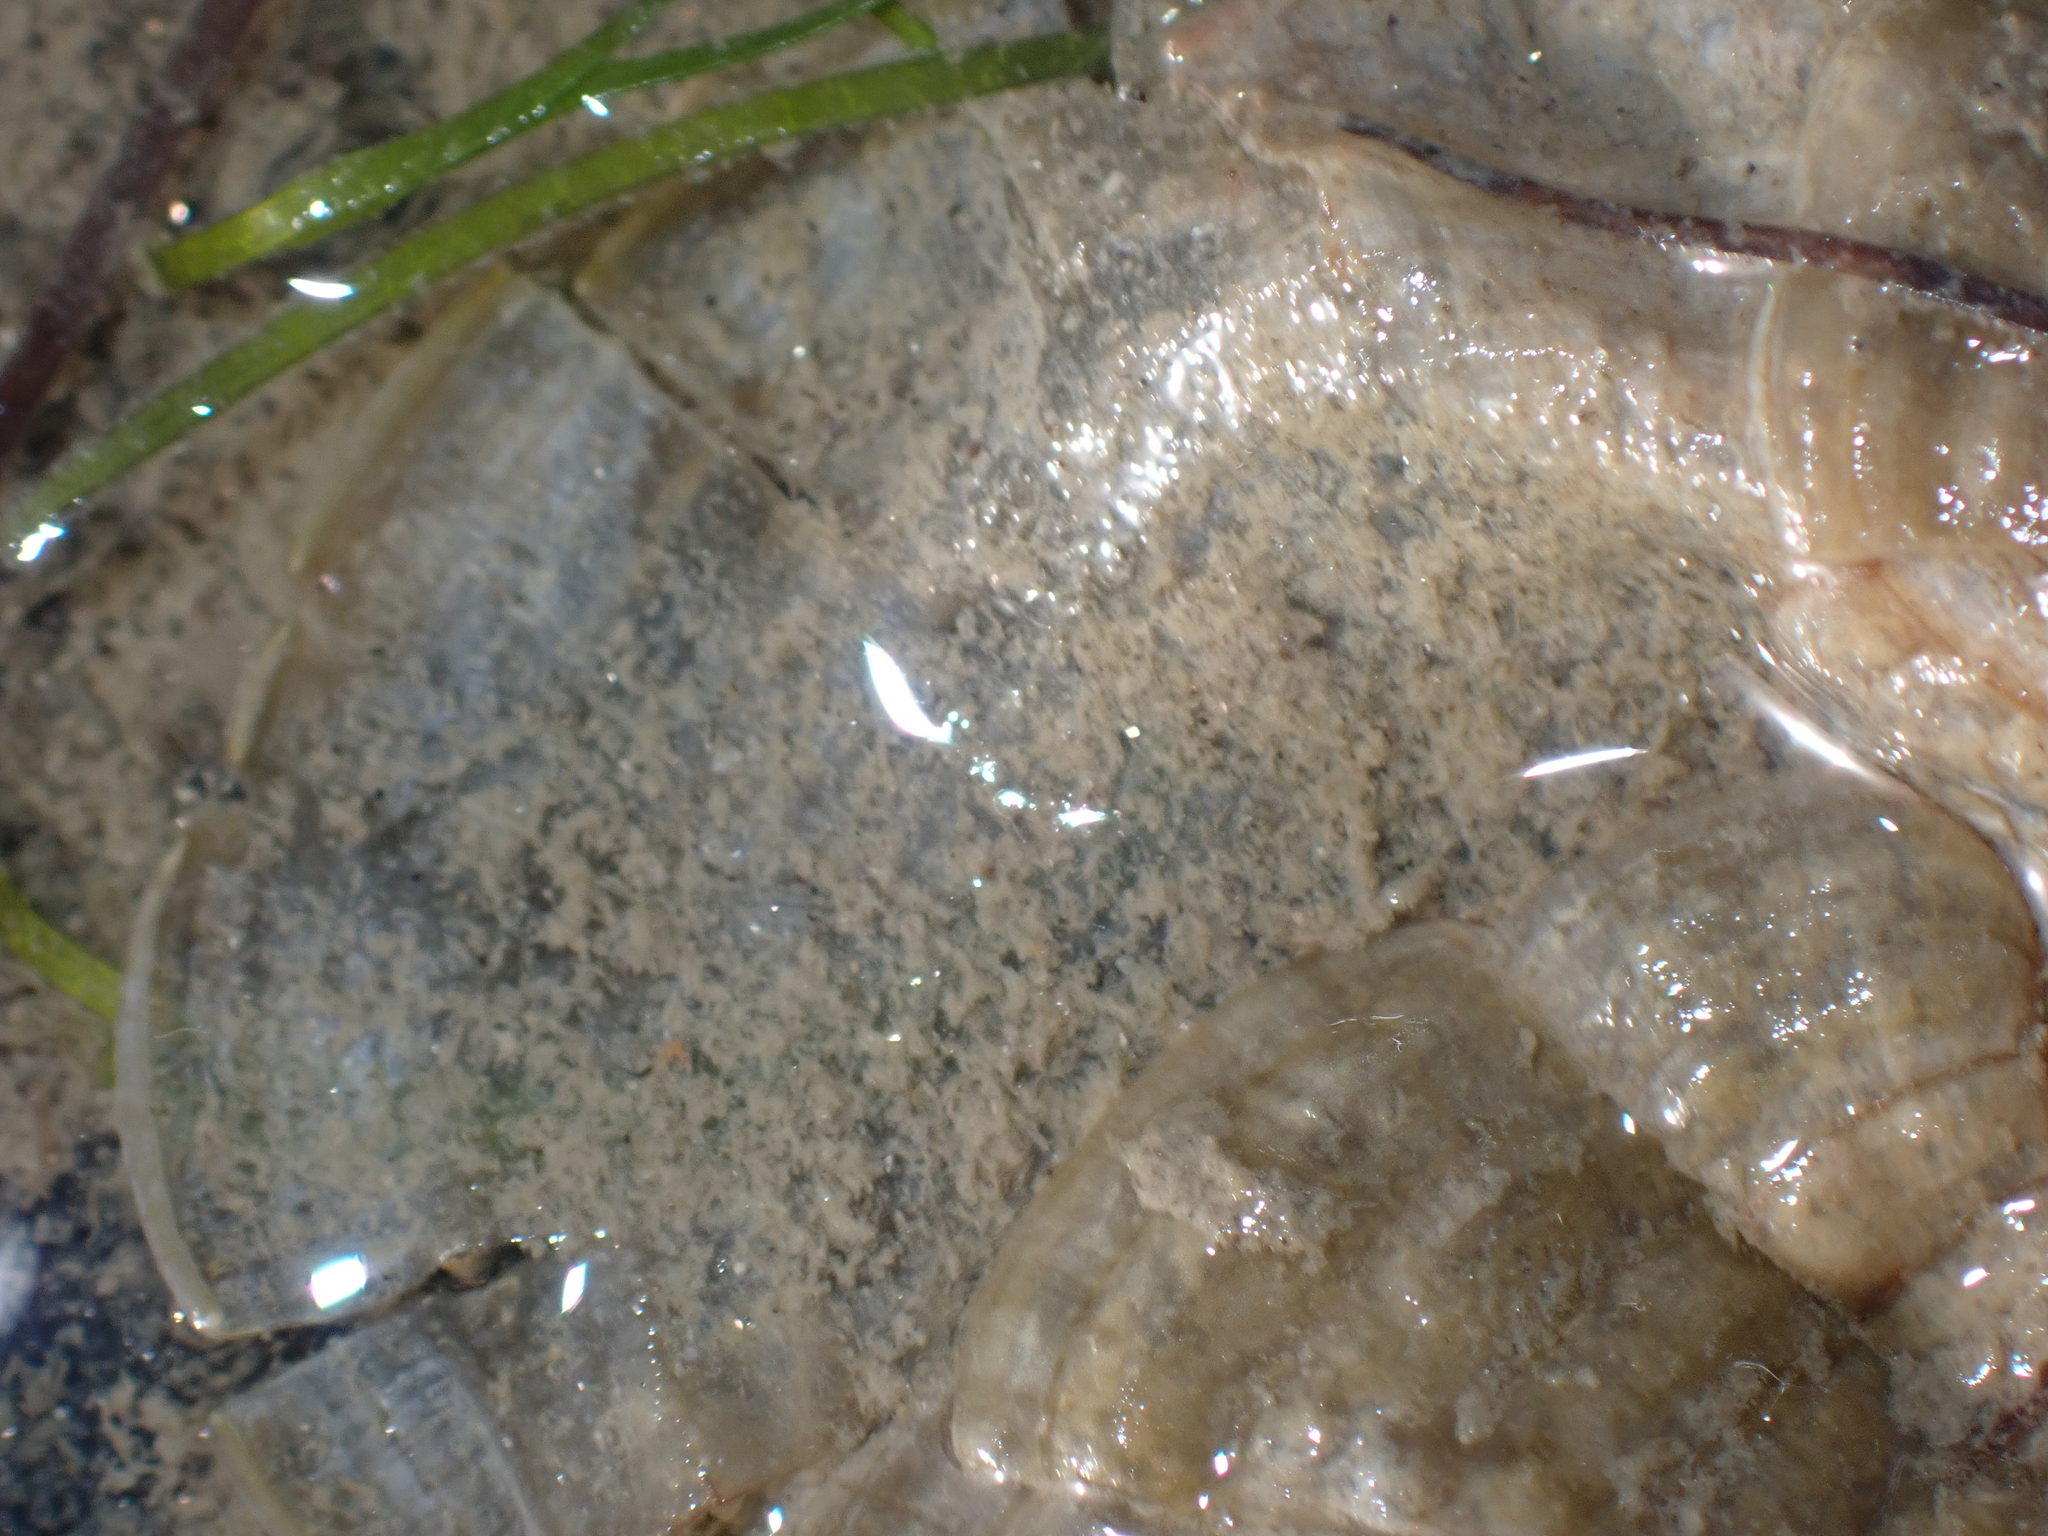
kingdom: Chromista
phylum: Ochrophyta
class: Phaeophyceae
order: Dictyotales
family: Dictyotaceae
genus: Padina
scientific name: Padina
